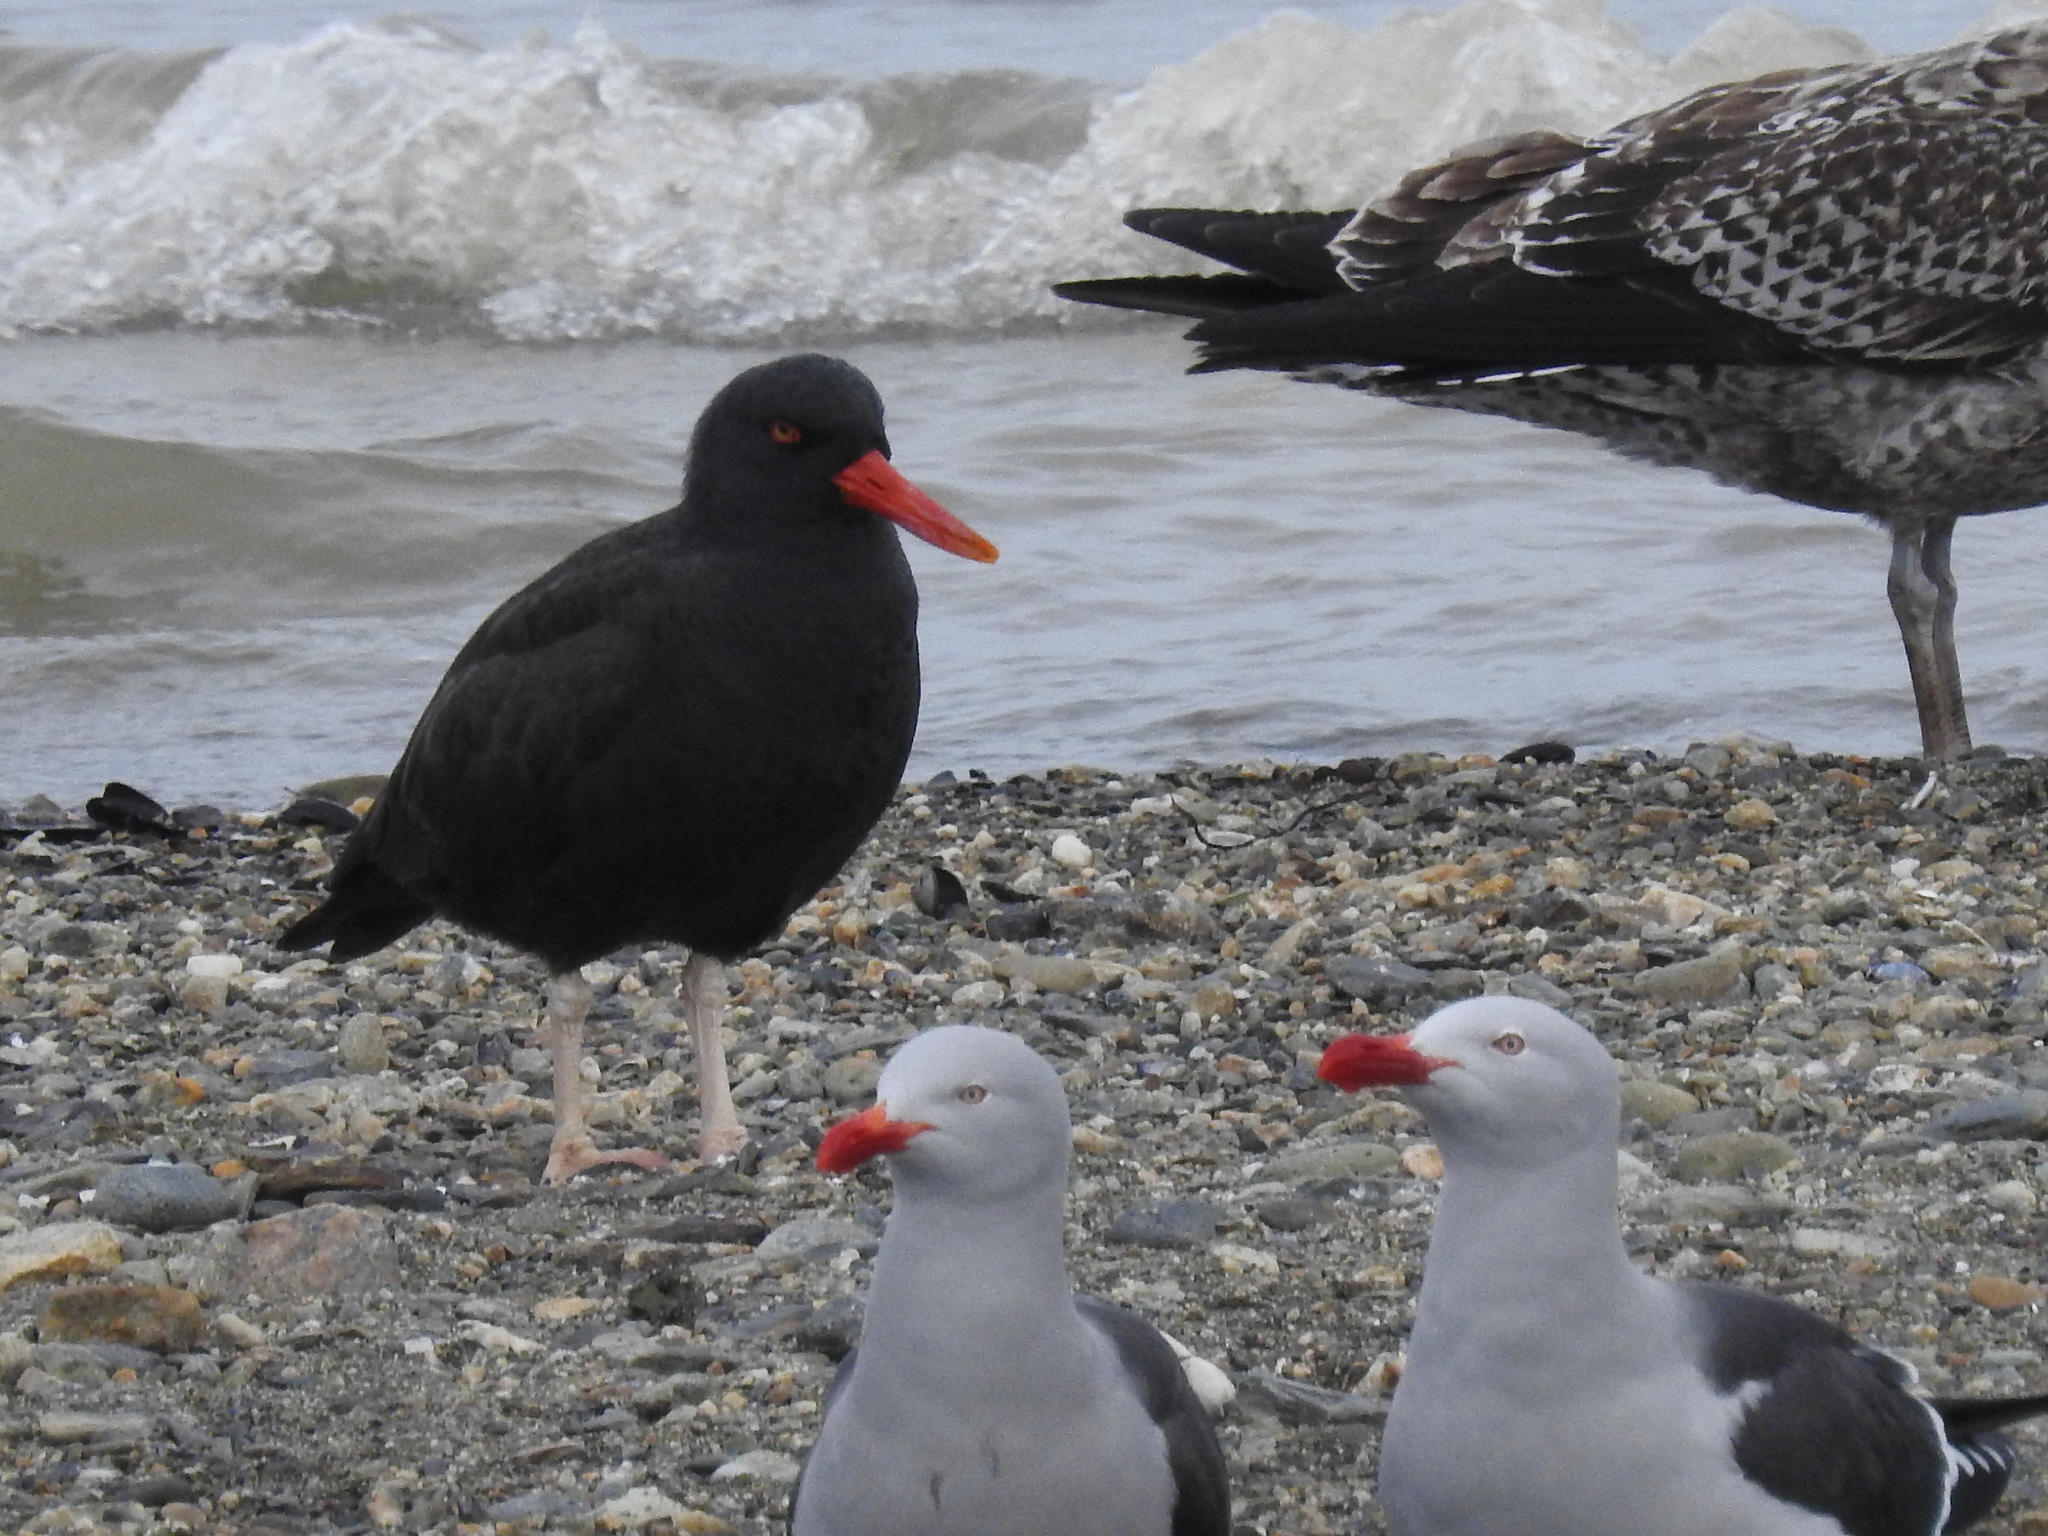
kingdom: Animalia
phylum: Chordata
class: Aves
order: Charadriiformes
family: Haematopodidae
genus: Haematopus
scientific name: Haematopus ater
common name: Blackish oystercatcher
